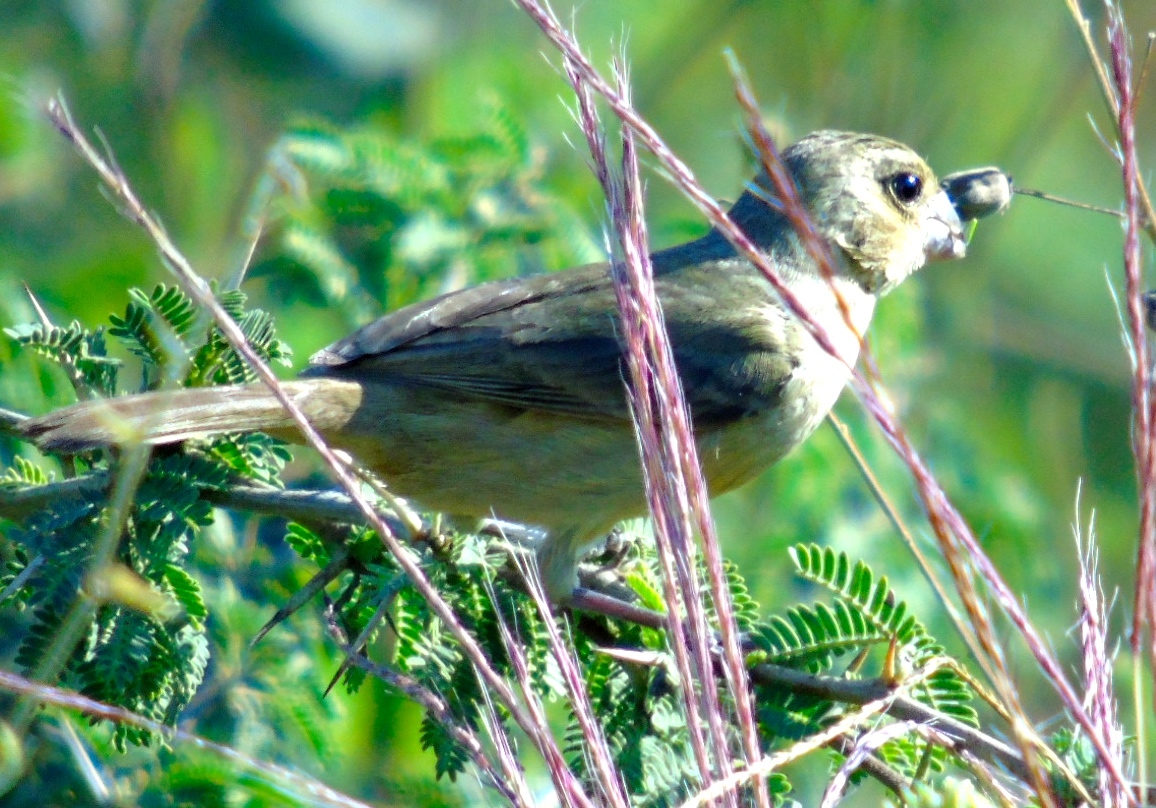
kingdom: Animalia
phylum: Chordata
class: Aves
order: Passeriformes
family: Thraupidae
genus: Sporophila
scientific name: Sporophila torqueola
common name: White-collared seedeater
